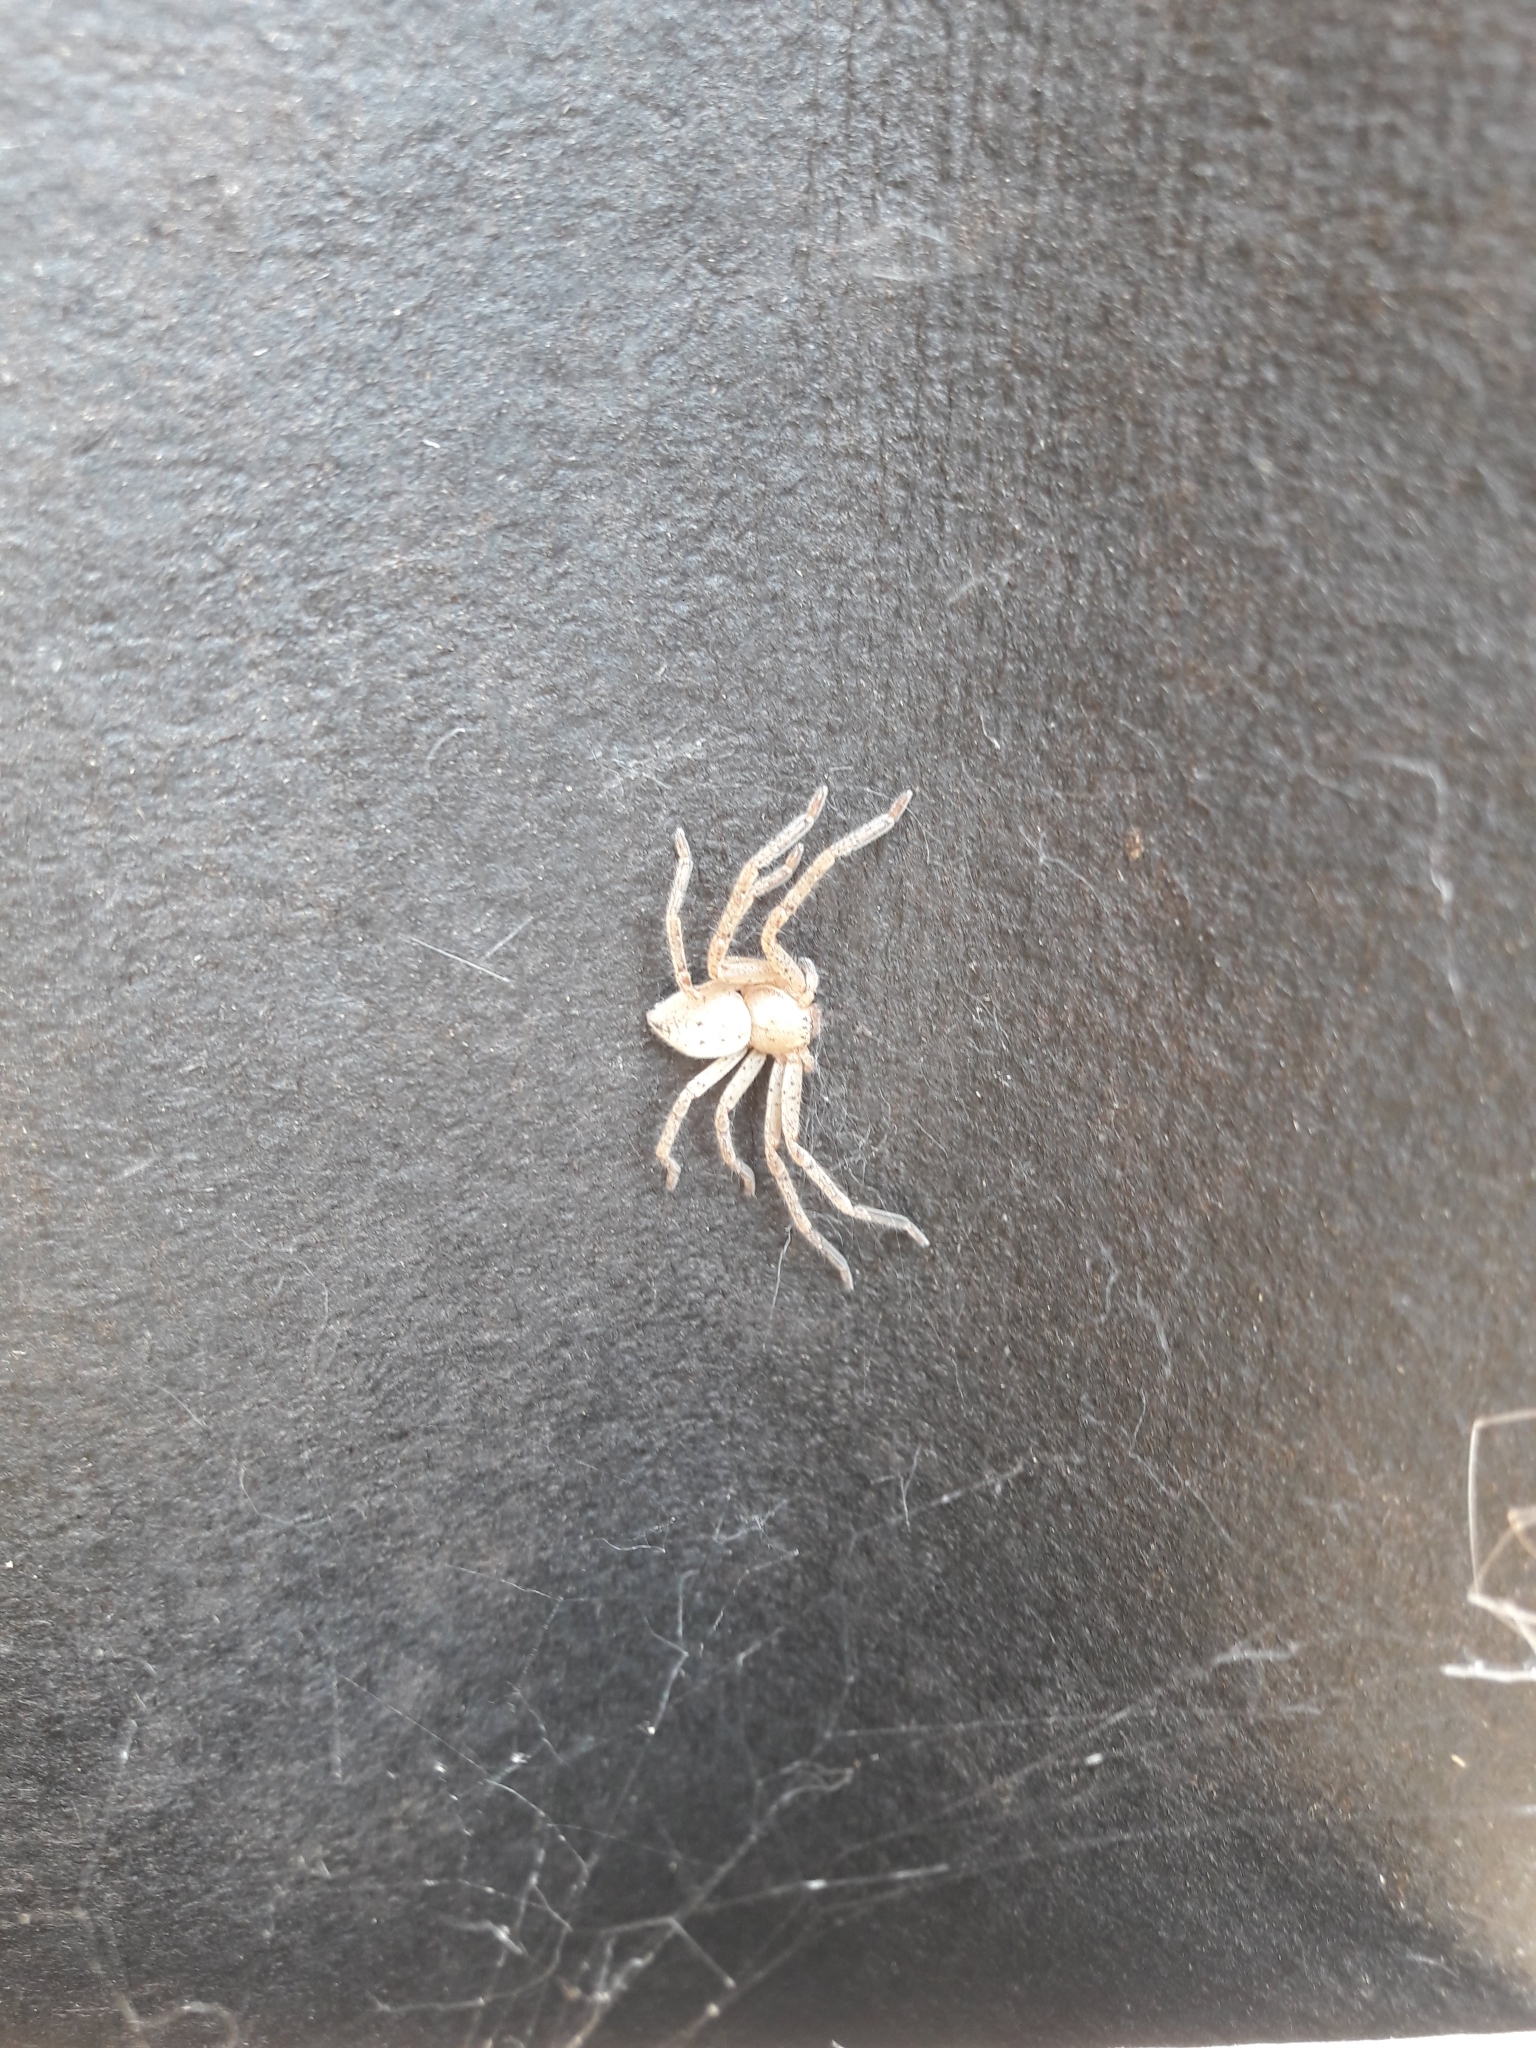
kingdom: Animalia
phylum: Arthropoda
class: Arachnida
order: Araneae
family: Sparassidae
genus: Olios
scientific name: Olios argelasius
